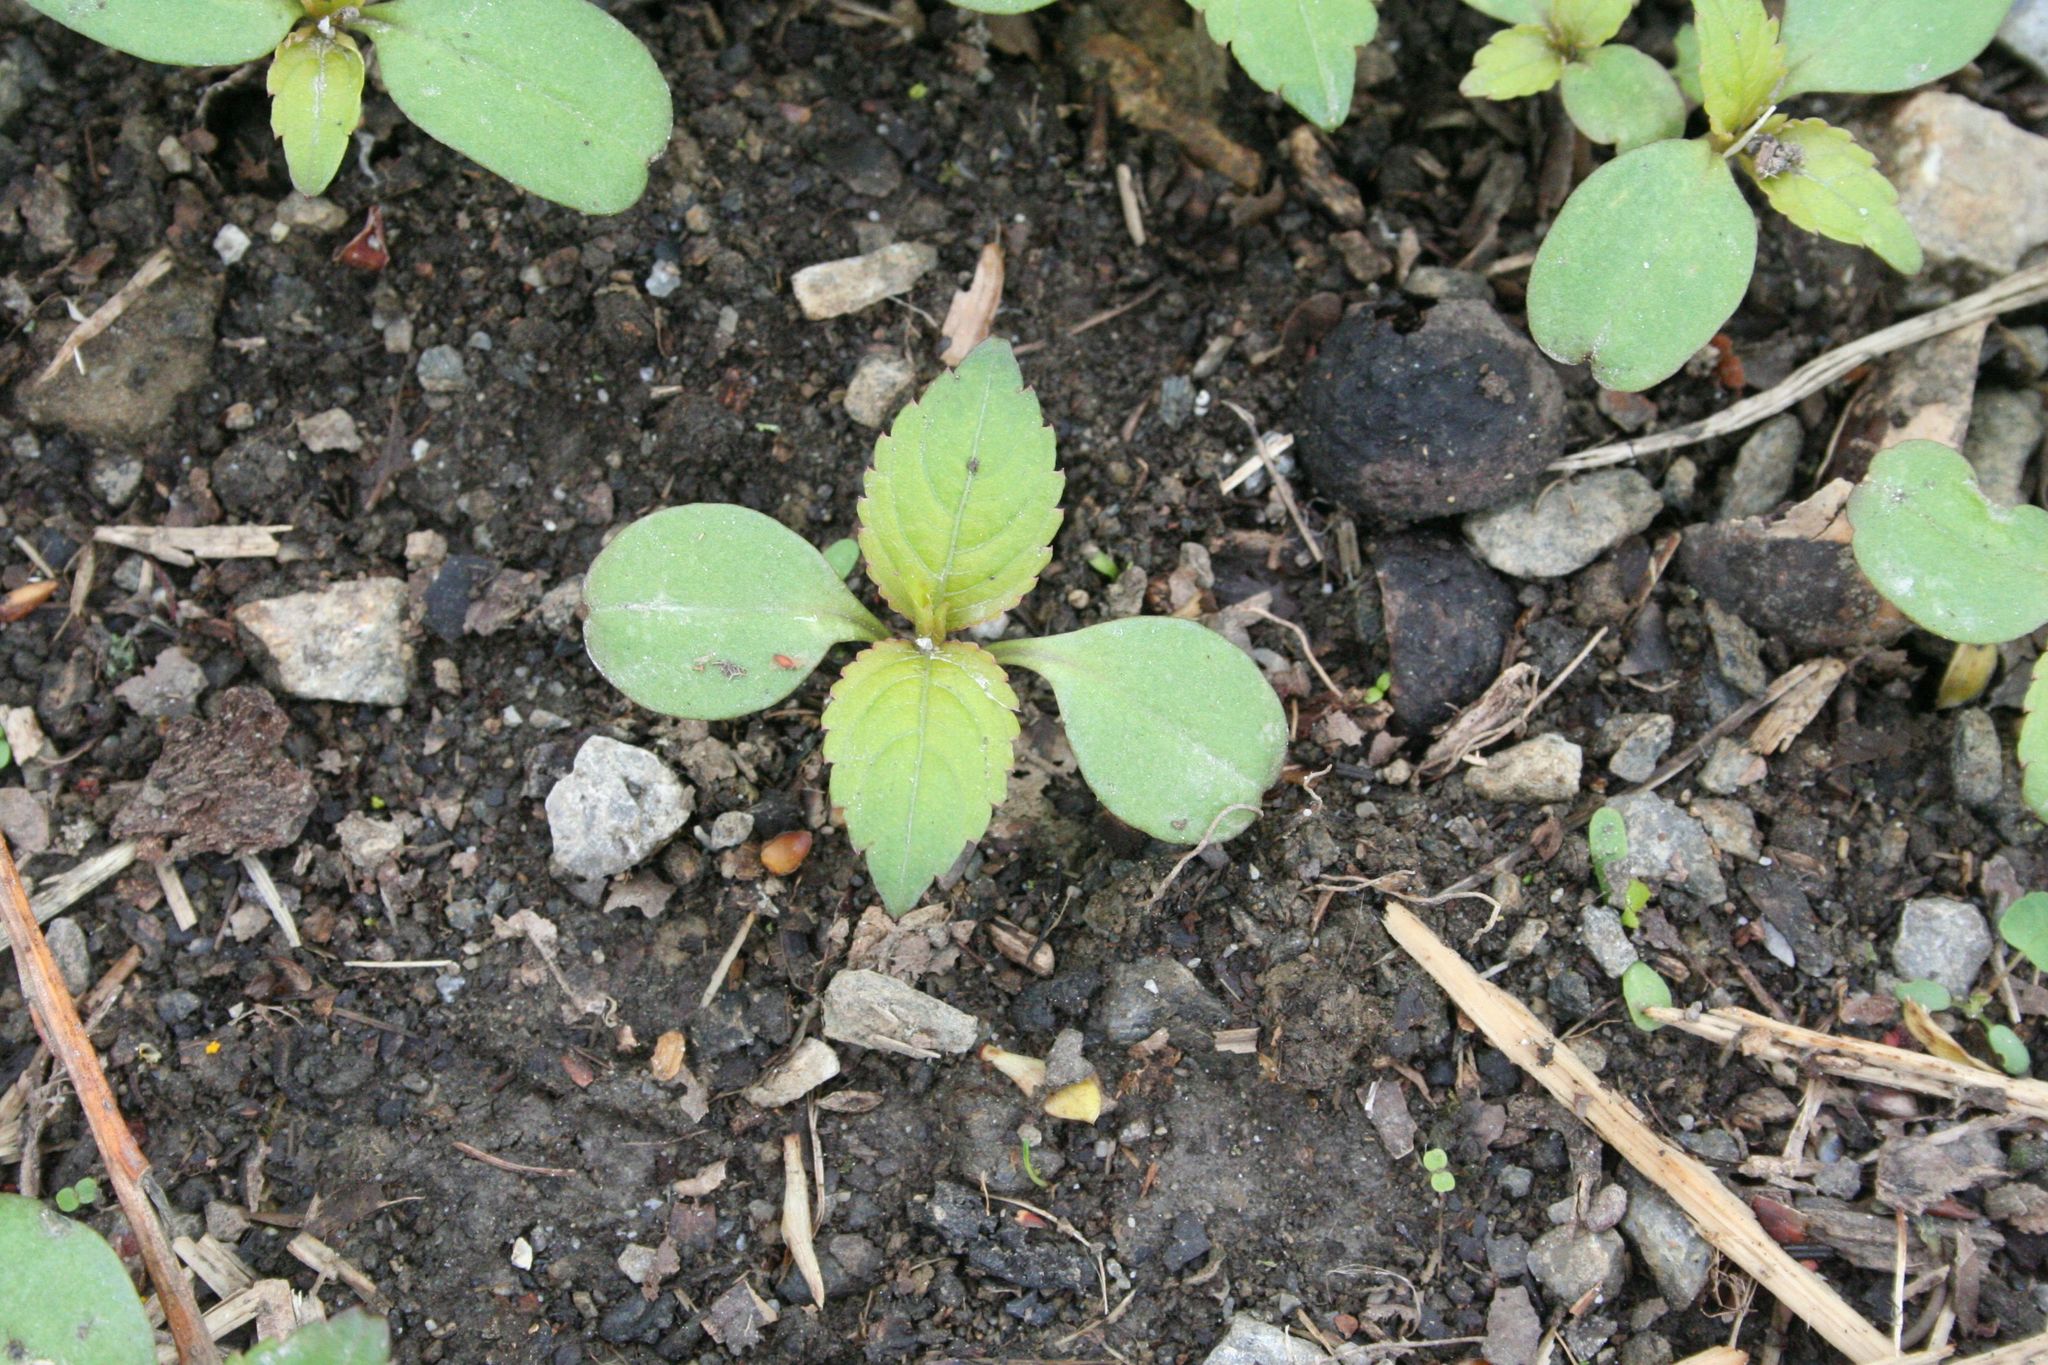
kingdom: Plantae
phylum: Tracheophyta
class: Magnoliopsida
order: Ericales
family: Balsaminaceae
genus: Impatiens
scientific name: Impatiens parviflora
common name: Small balsam
